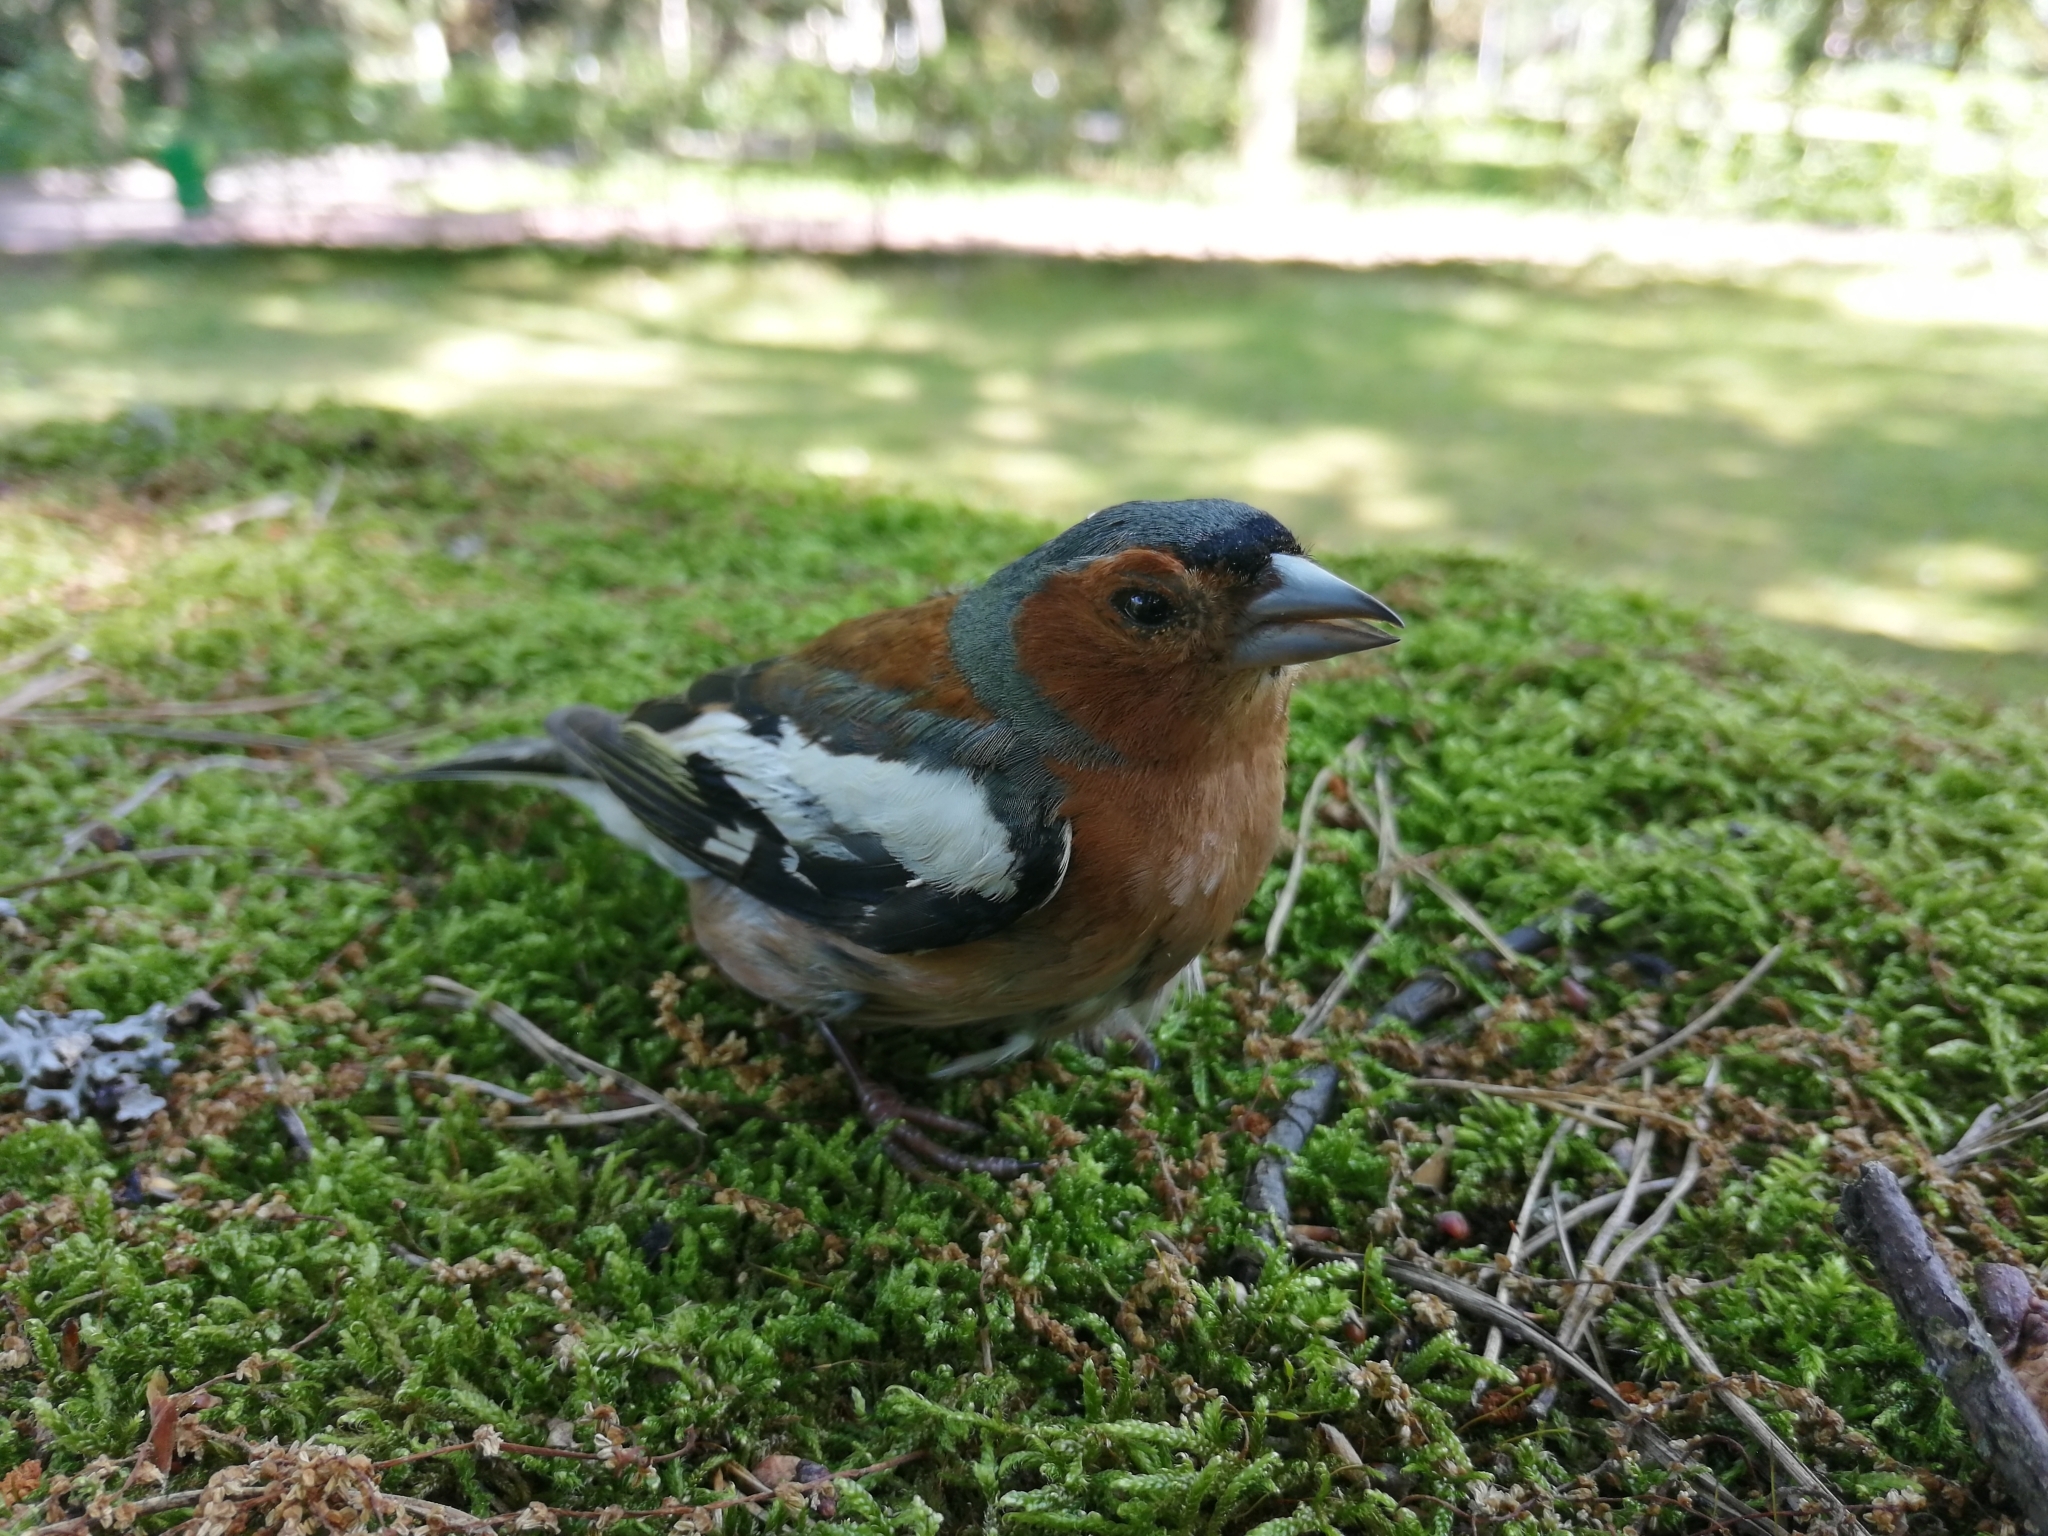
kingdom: Animalia
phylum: Chordata
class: Aves
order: Passeriformes
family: Fringillidae
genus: Fringilla
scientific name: Fringilla coelebs
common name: Common chaffinch
